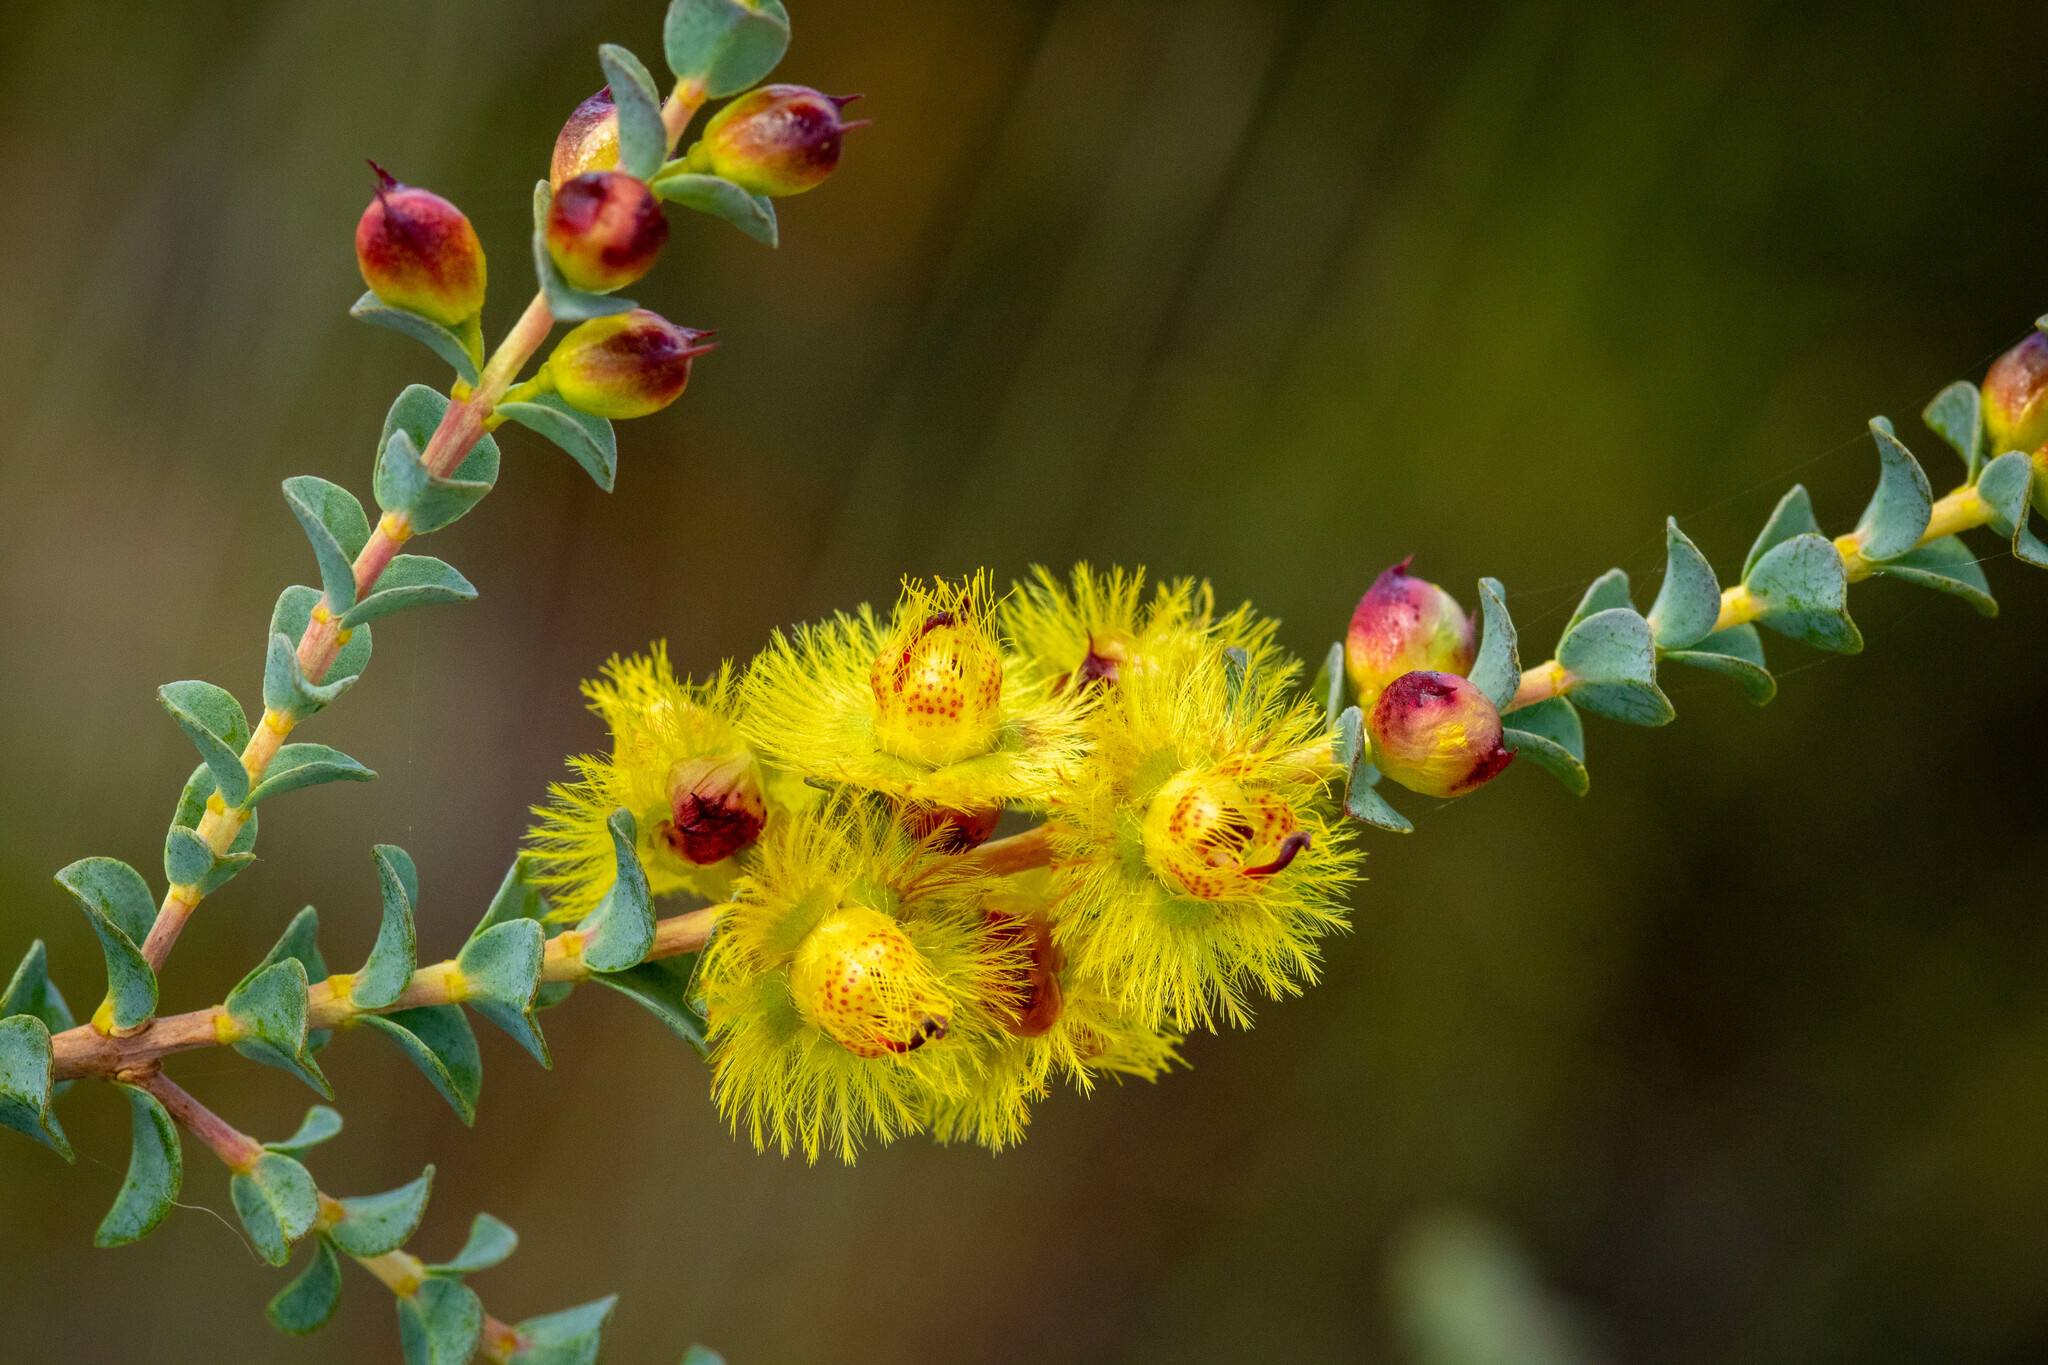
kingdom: Plantae
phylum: Tracheophyta
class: Magnoliopsida
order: Myrtales
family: Myrtaceae
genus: Verticordia
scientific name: Verticordia chrysostachys
